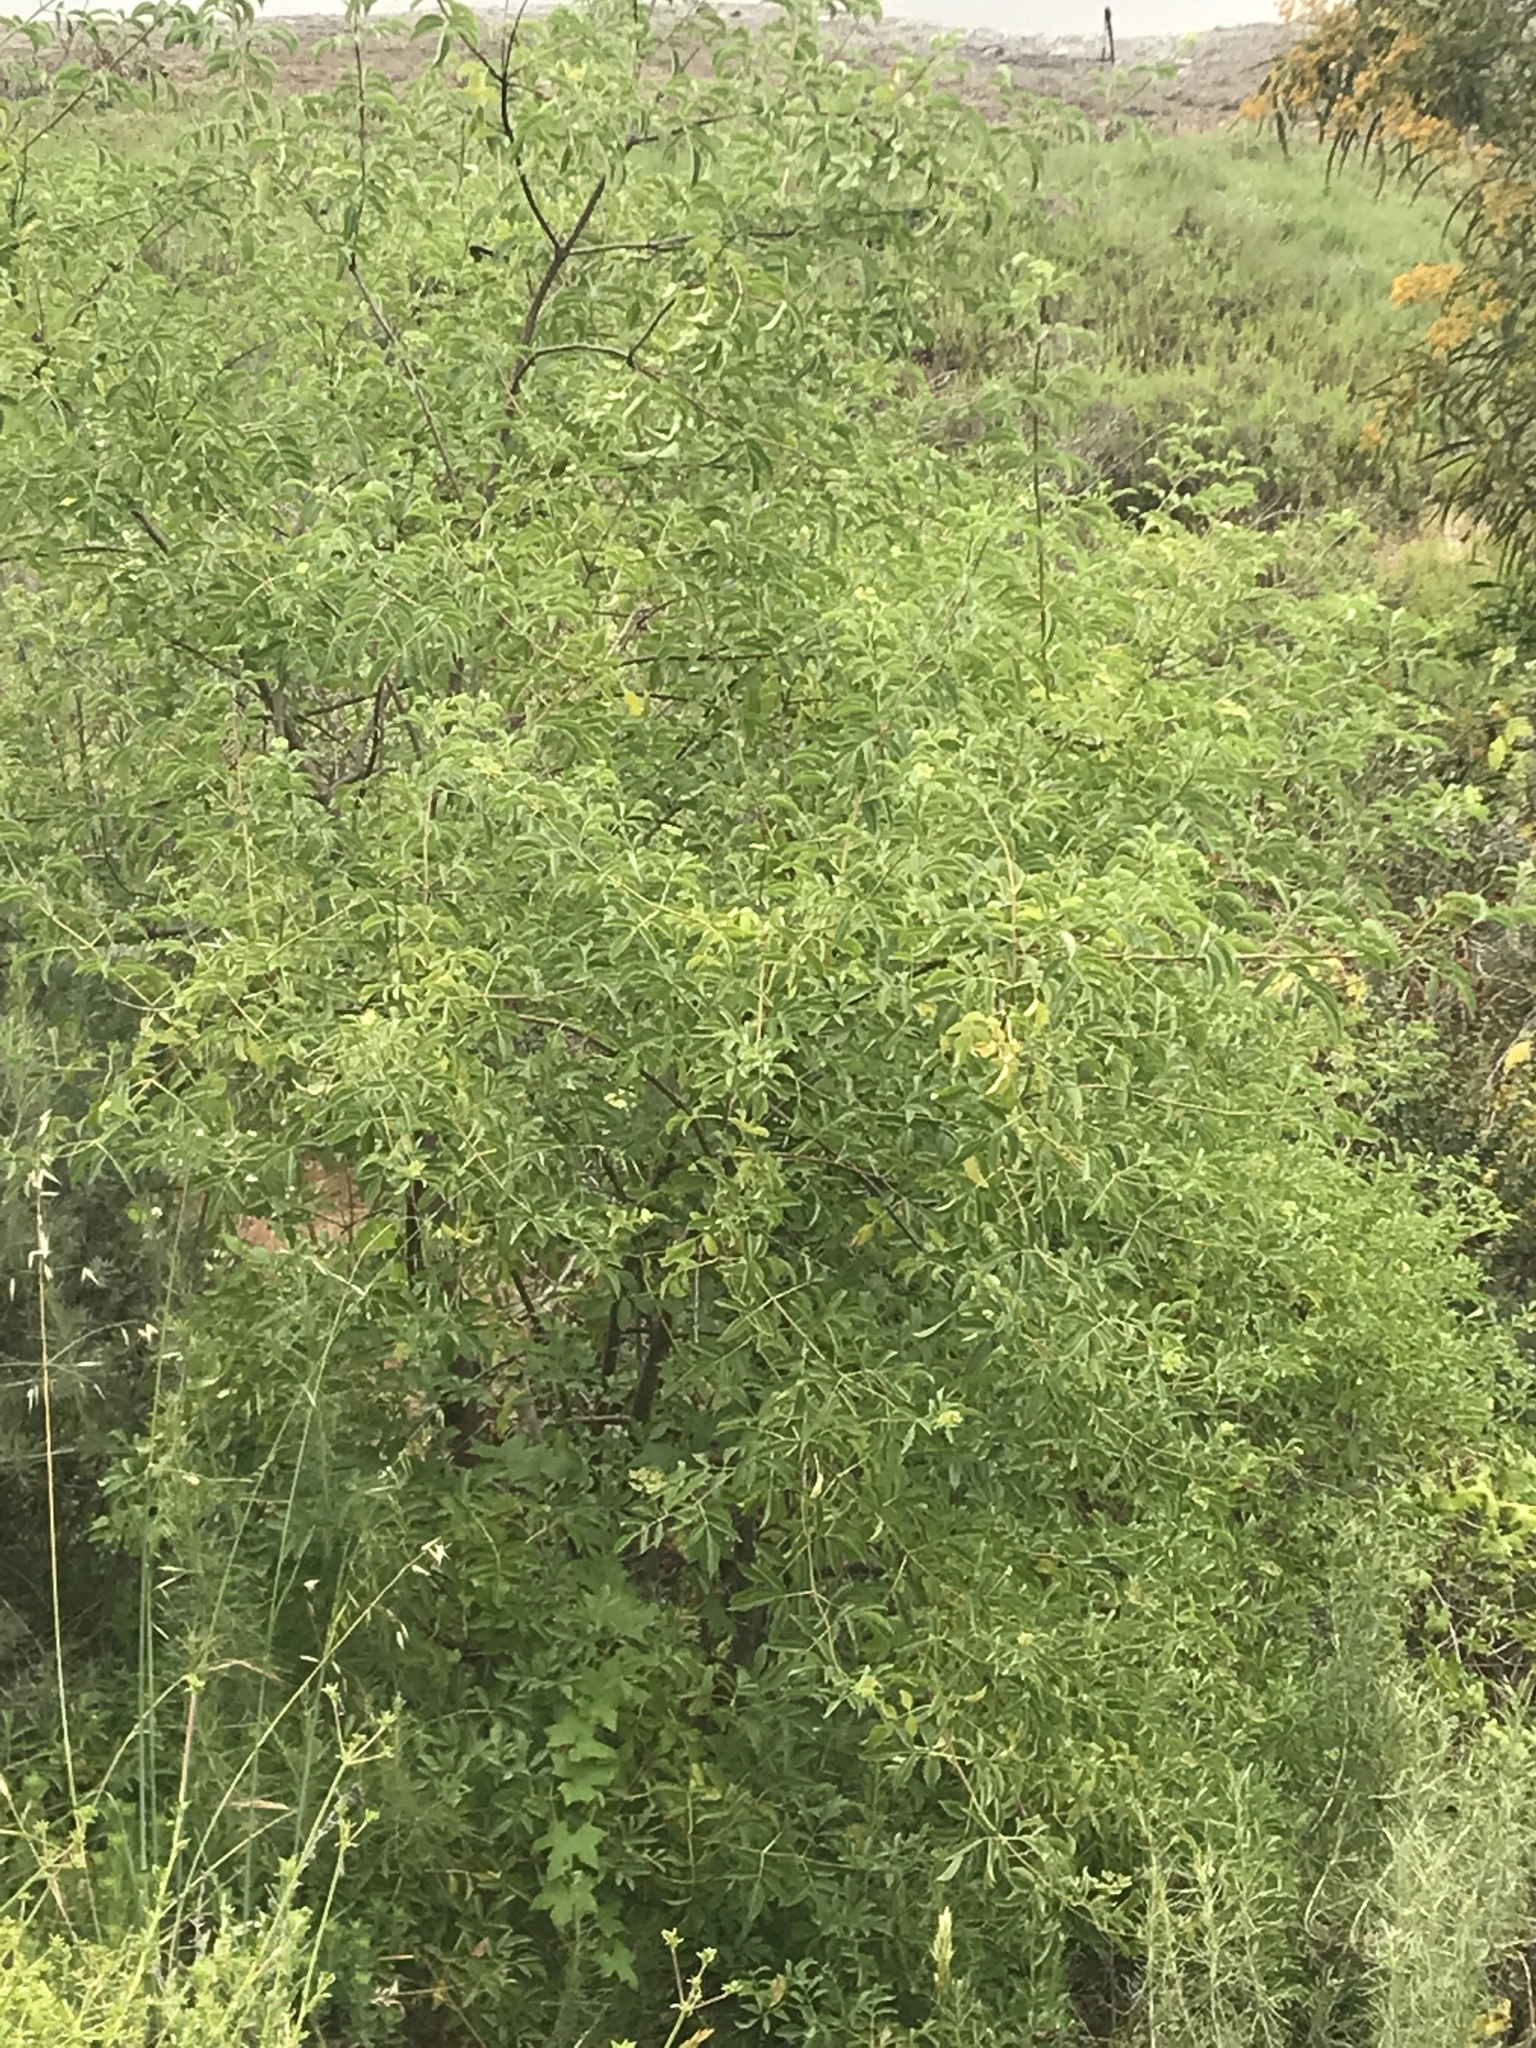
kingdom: Plantae
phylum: Tracheophyta
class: Magnoliopsida
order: Dipsacales
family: Viburnaceae
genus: Sambucus
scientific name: Sambucus cerulea
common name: Blue elder
